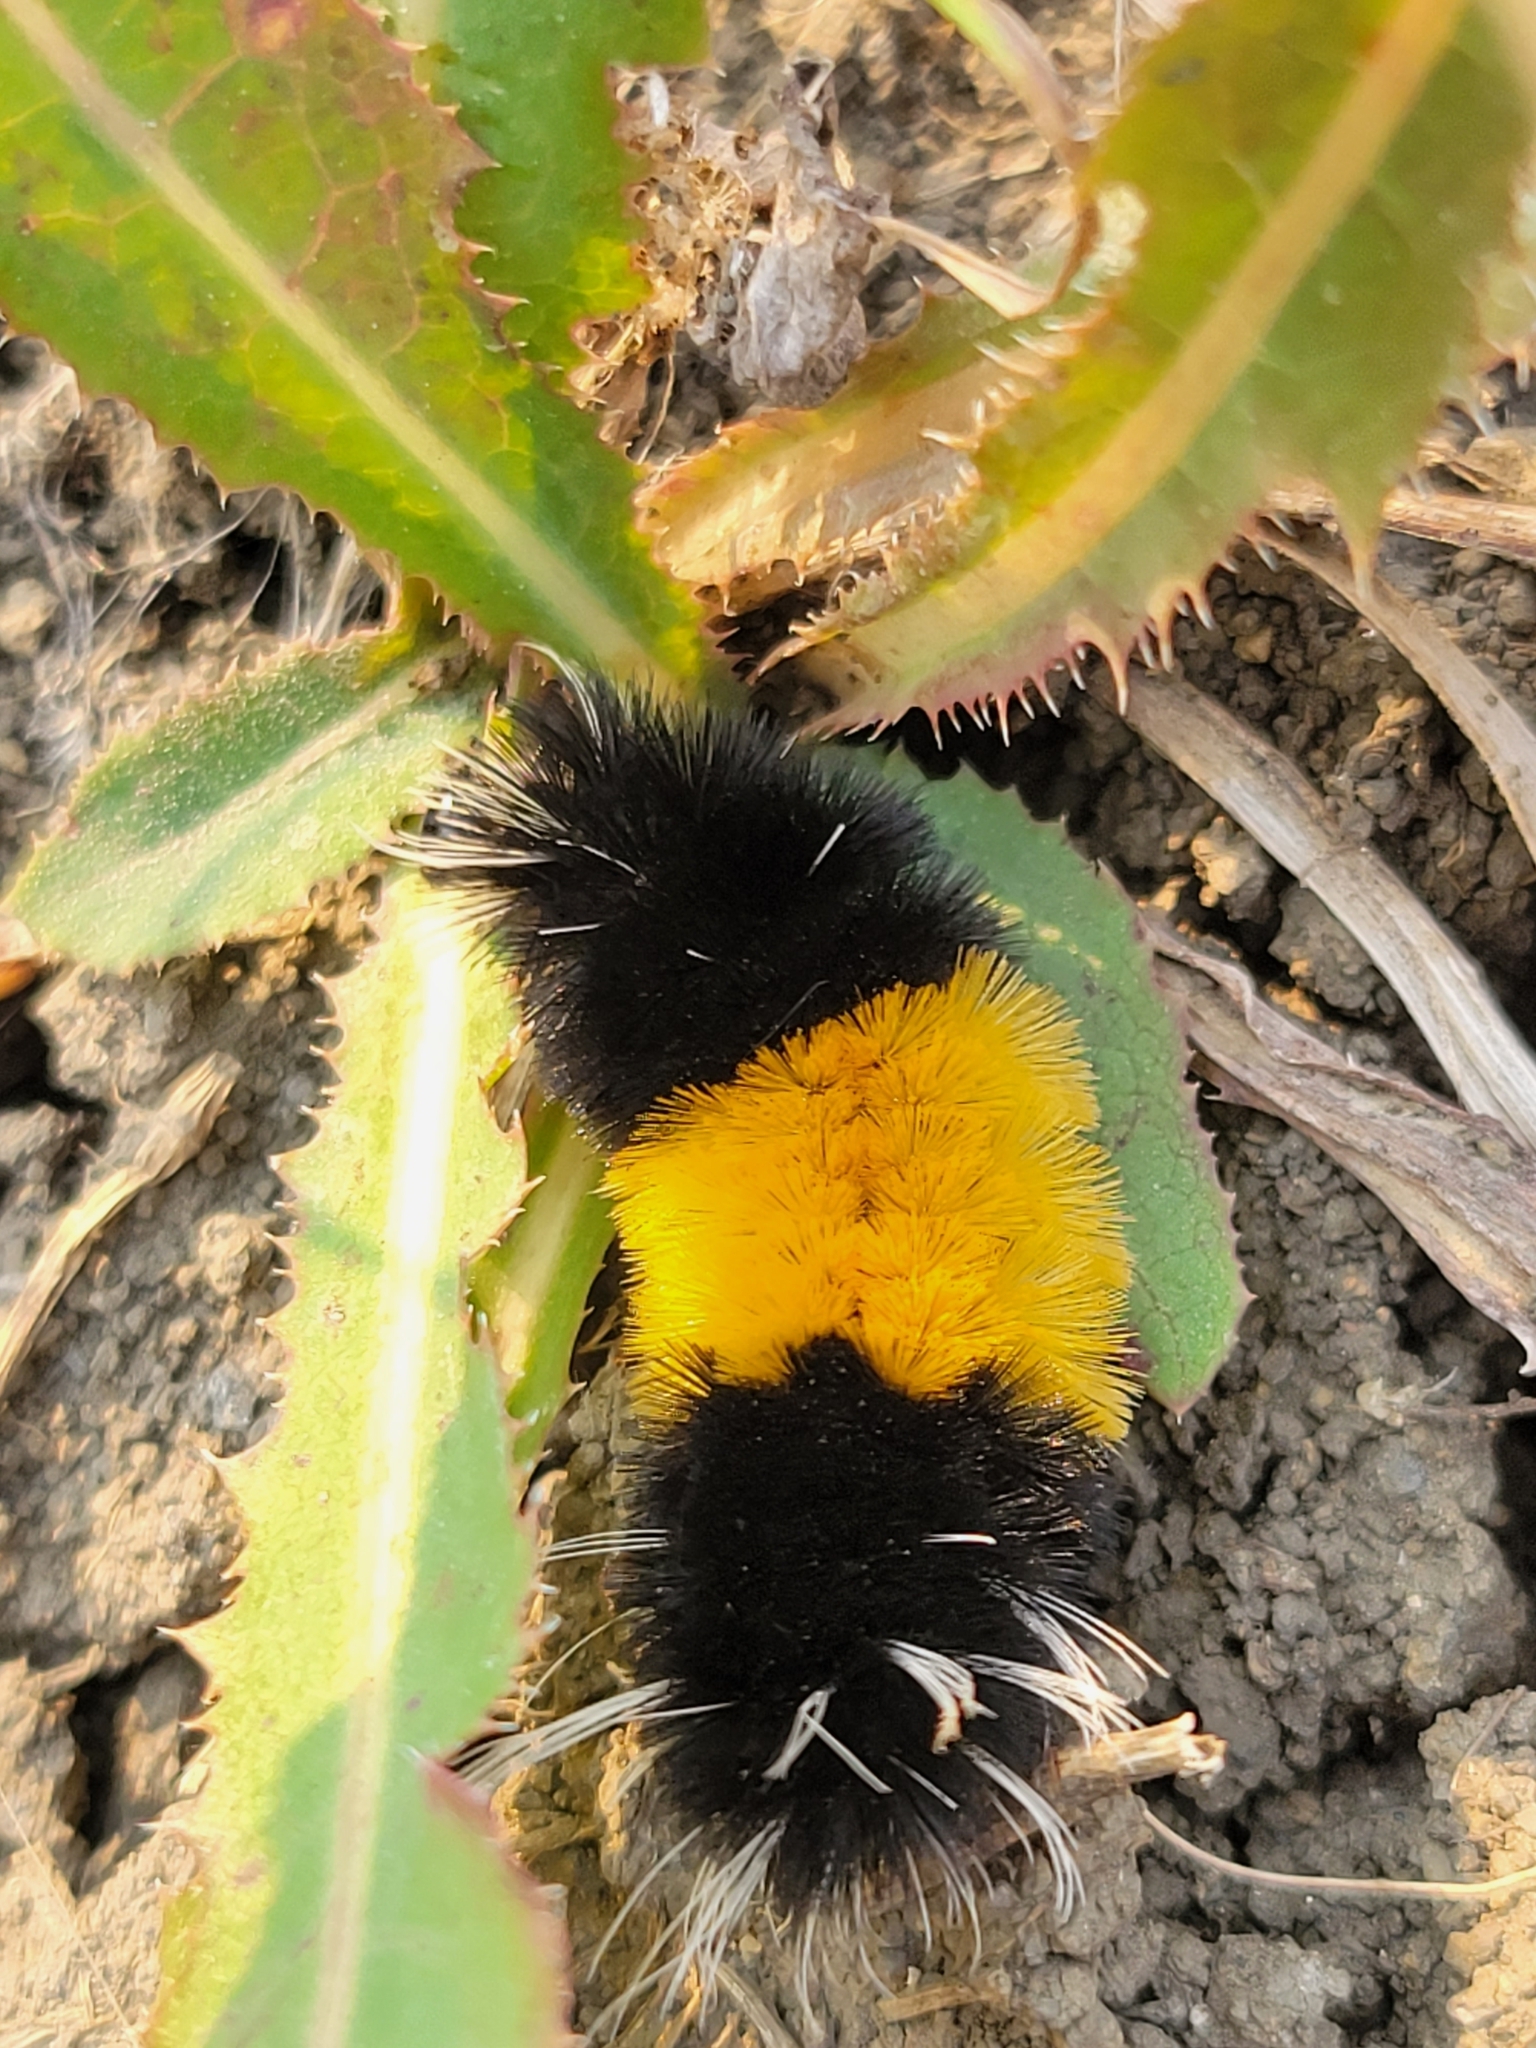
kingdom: Animalia
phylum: Arthropoda
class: Insecta
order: Lepidoptera
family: Erebidae
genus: Lophocampa
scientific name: Lophocampa maculata
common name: Spotted tussock moth
